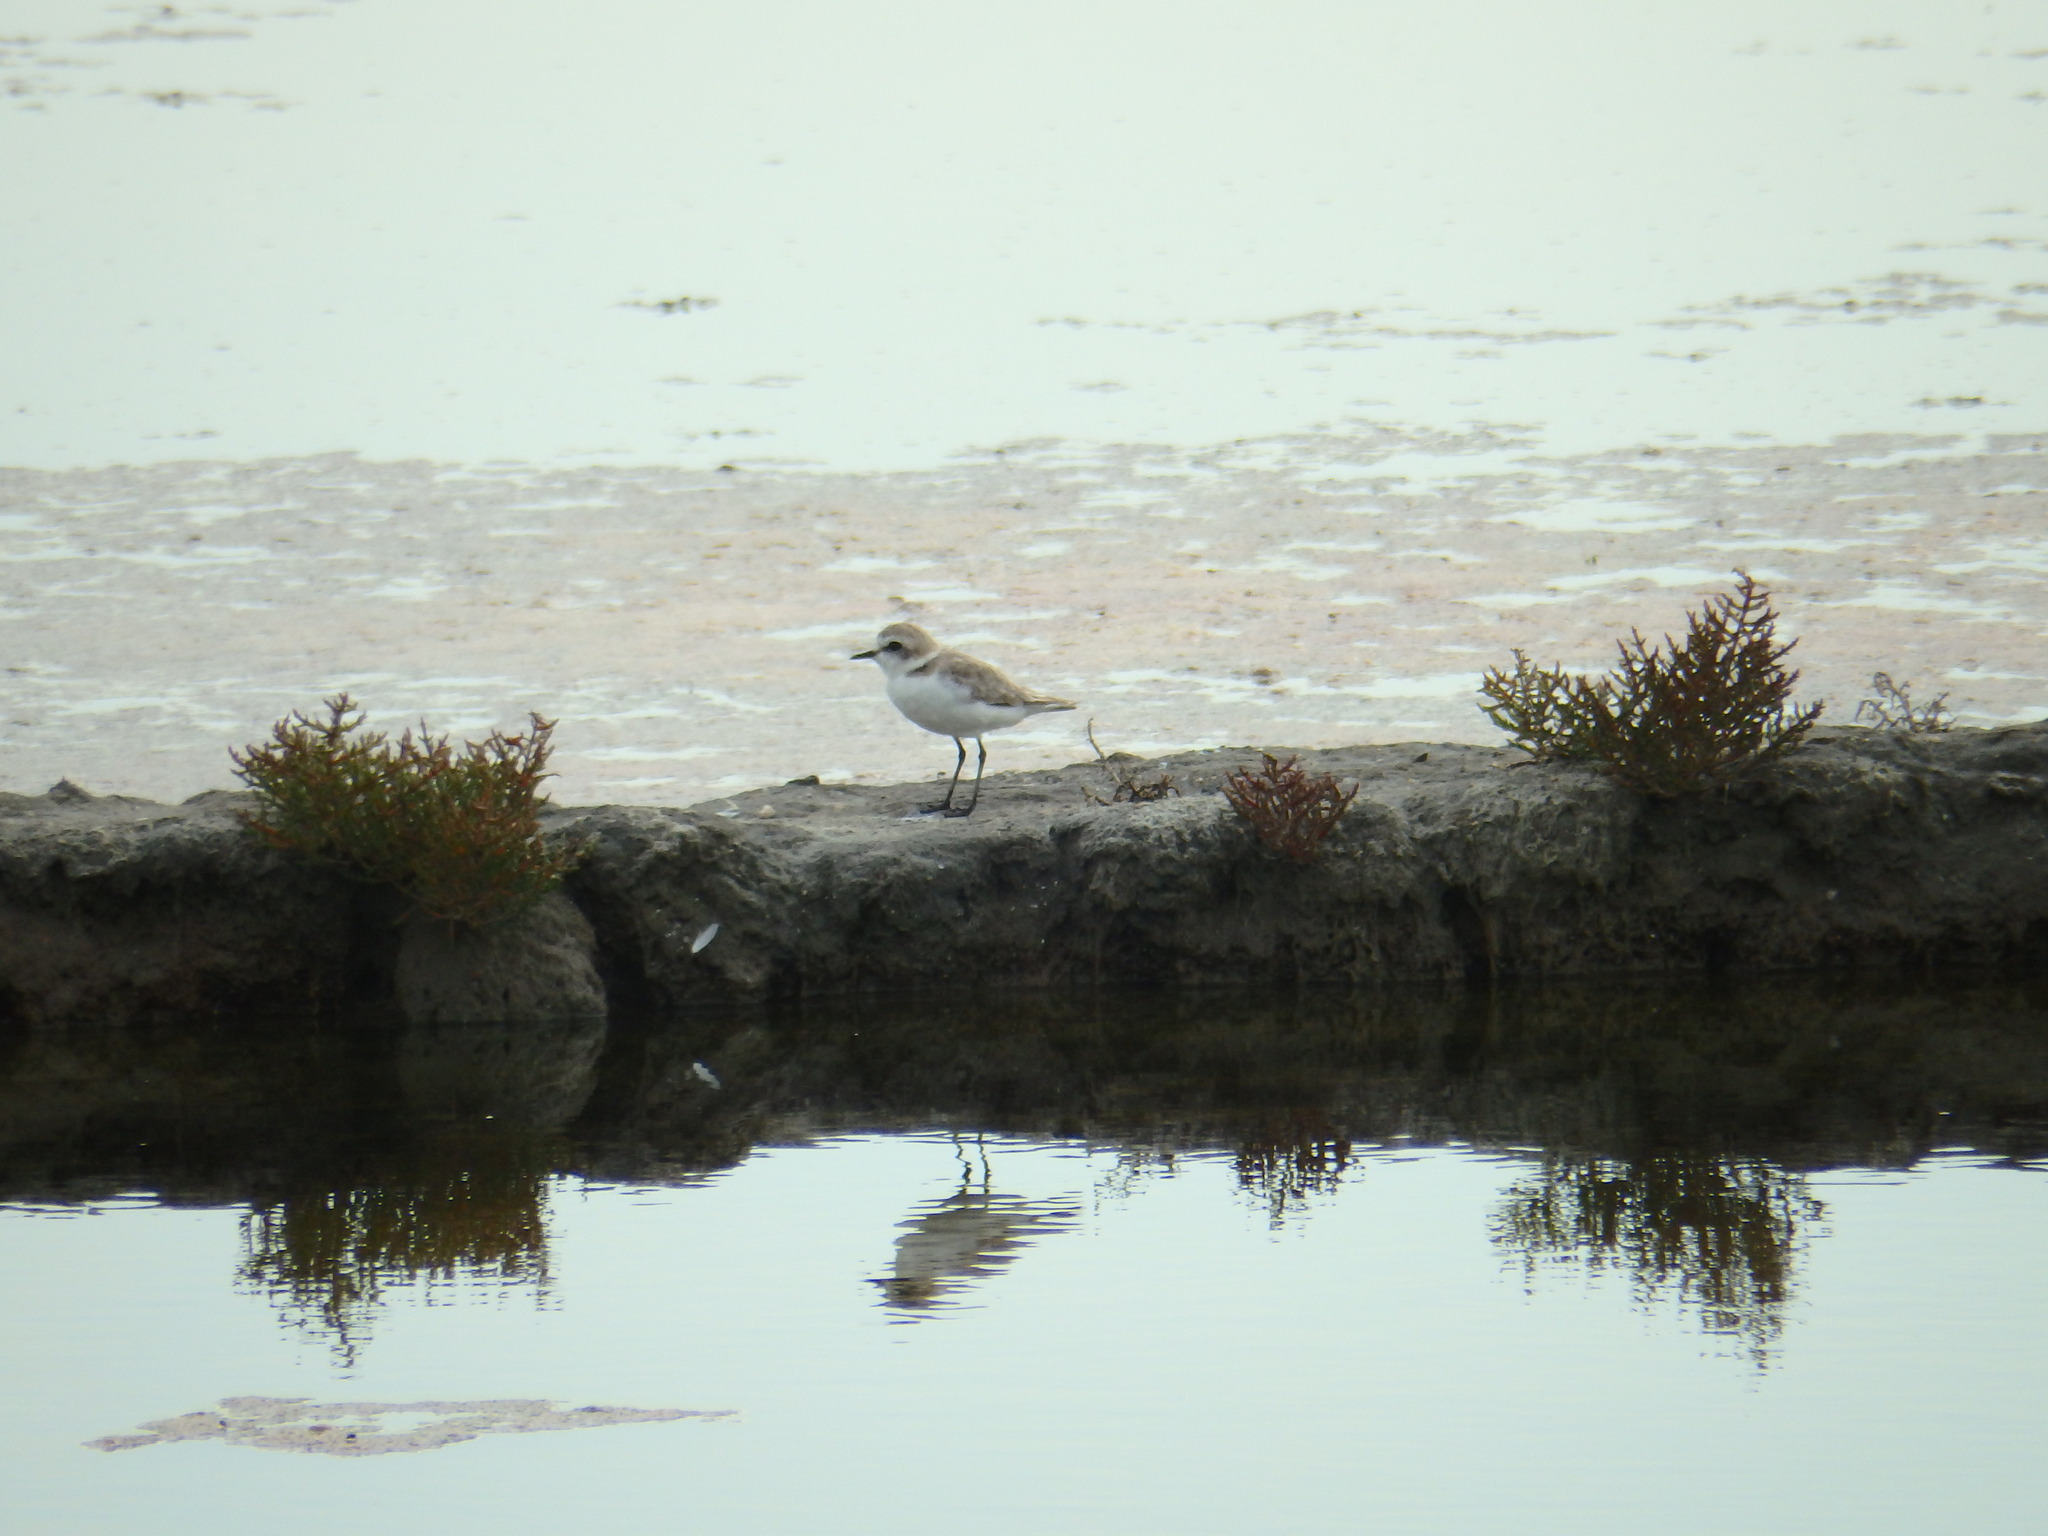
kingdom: Animalia
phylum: Chordata
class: Aves
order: Charadriiformes
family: Charadriidae
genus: Charadrius
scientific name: Charadrius alexandrinus
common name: Kentish plover
